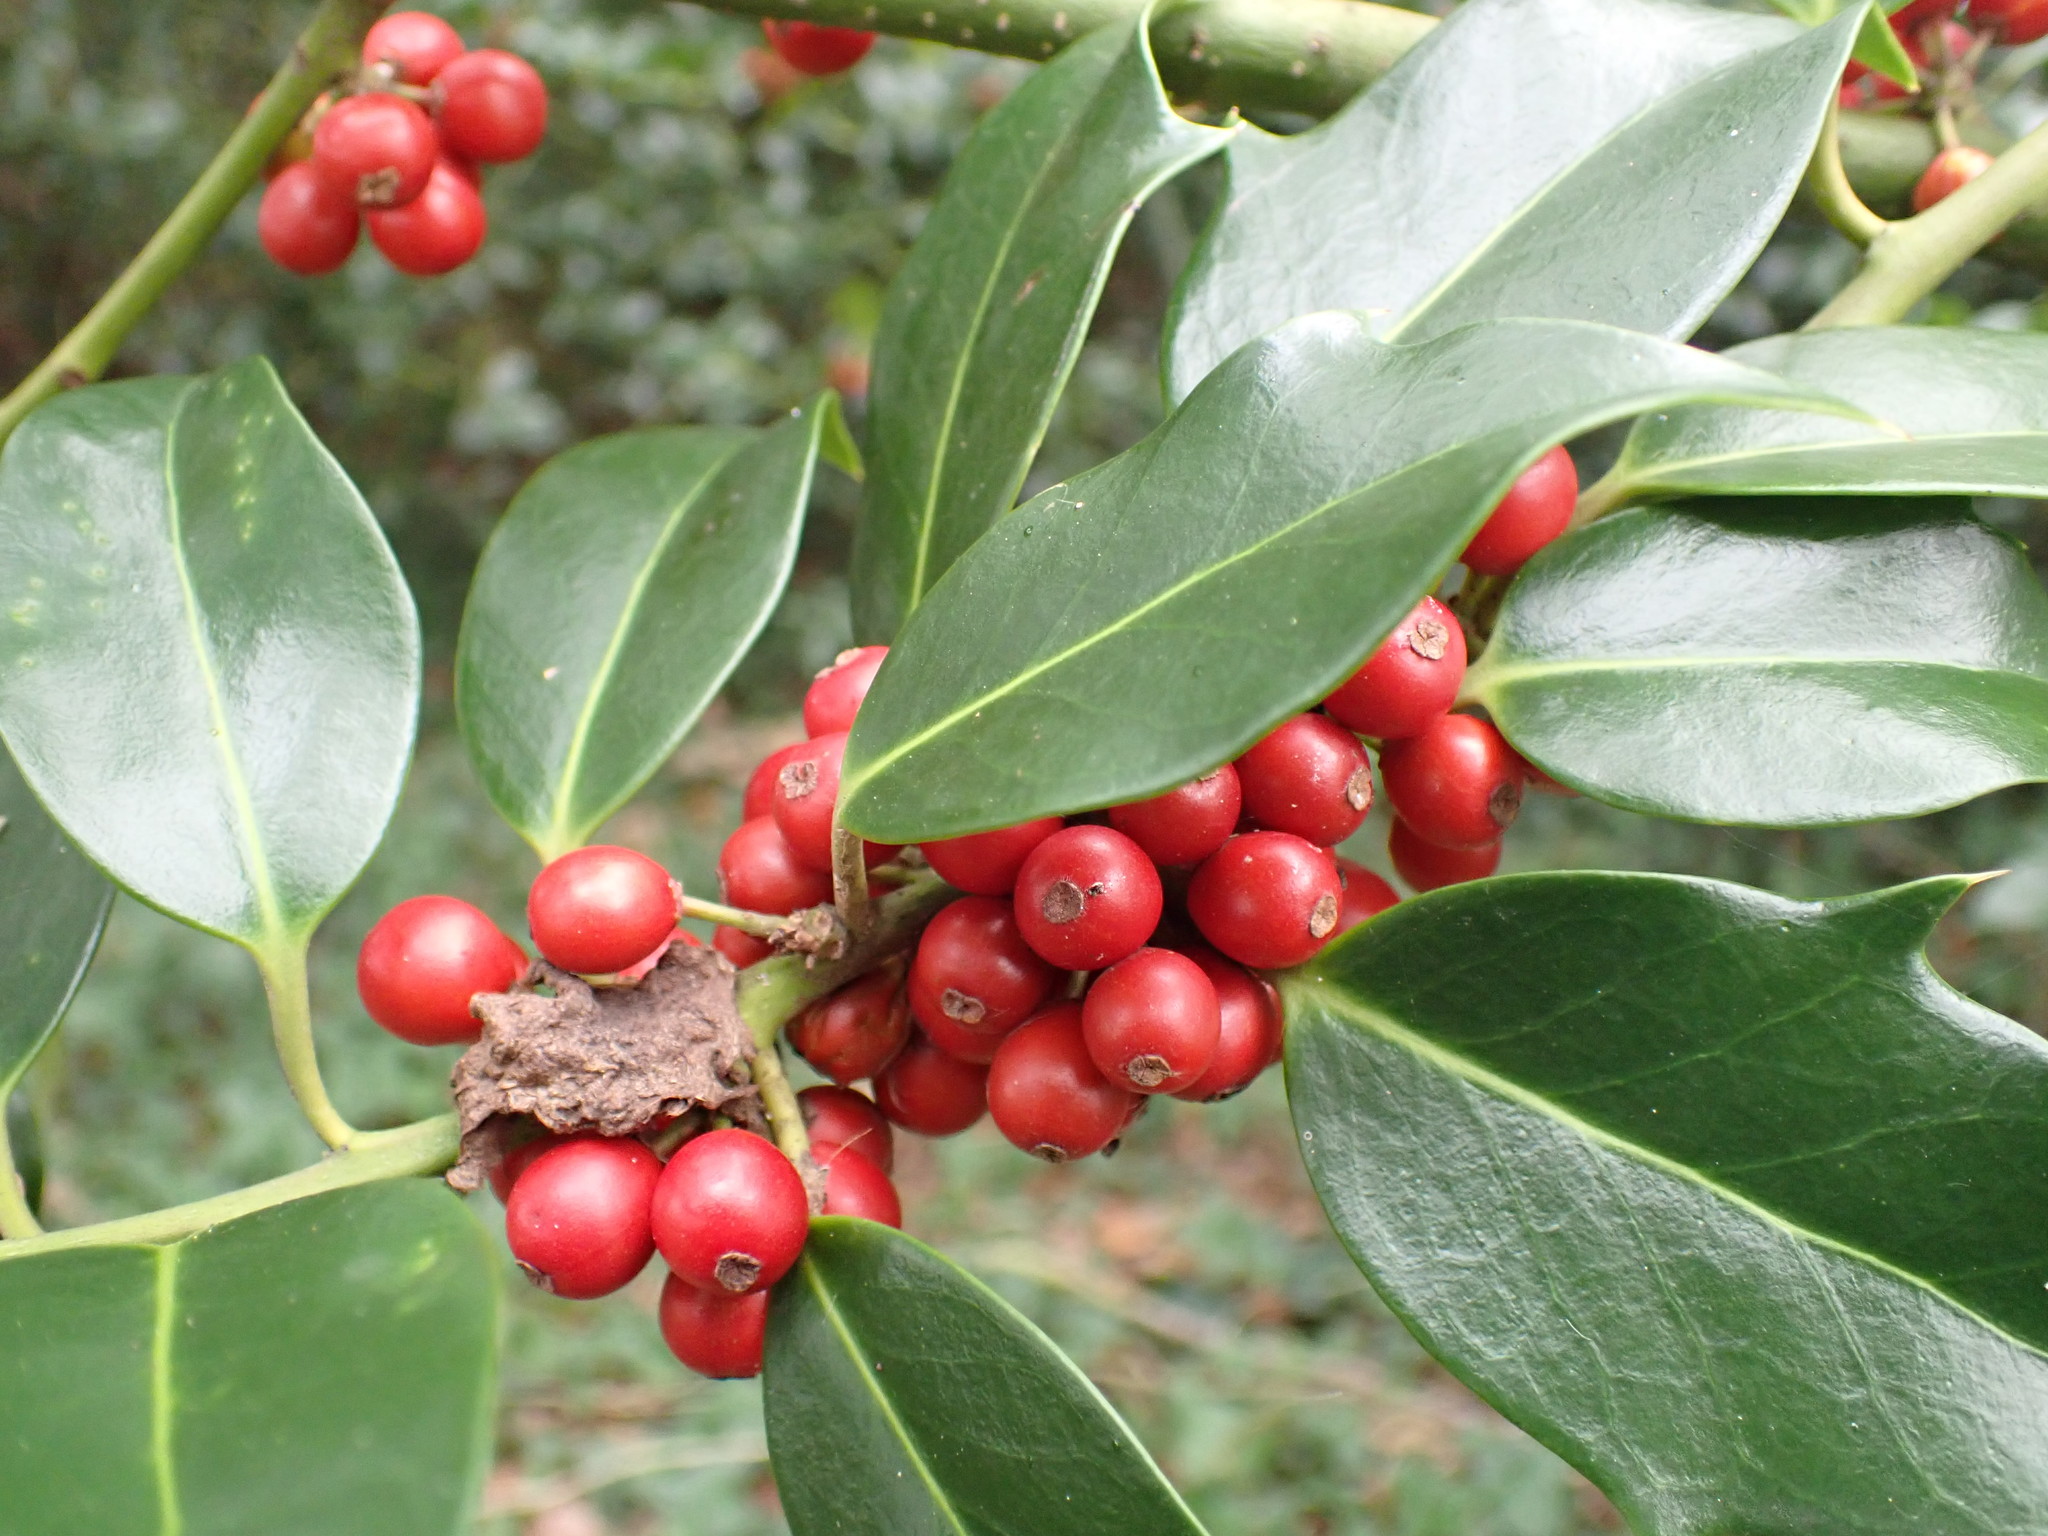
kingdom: Plantae
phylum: Tracheophyta
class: Magnoliopsida
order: Aquifoliales
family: Aquifoliaceae
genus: Ilex
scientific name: Ilex aquifolium
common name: English holly
